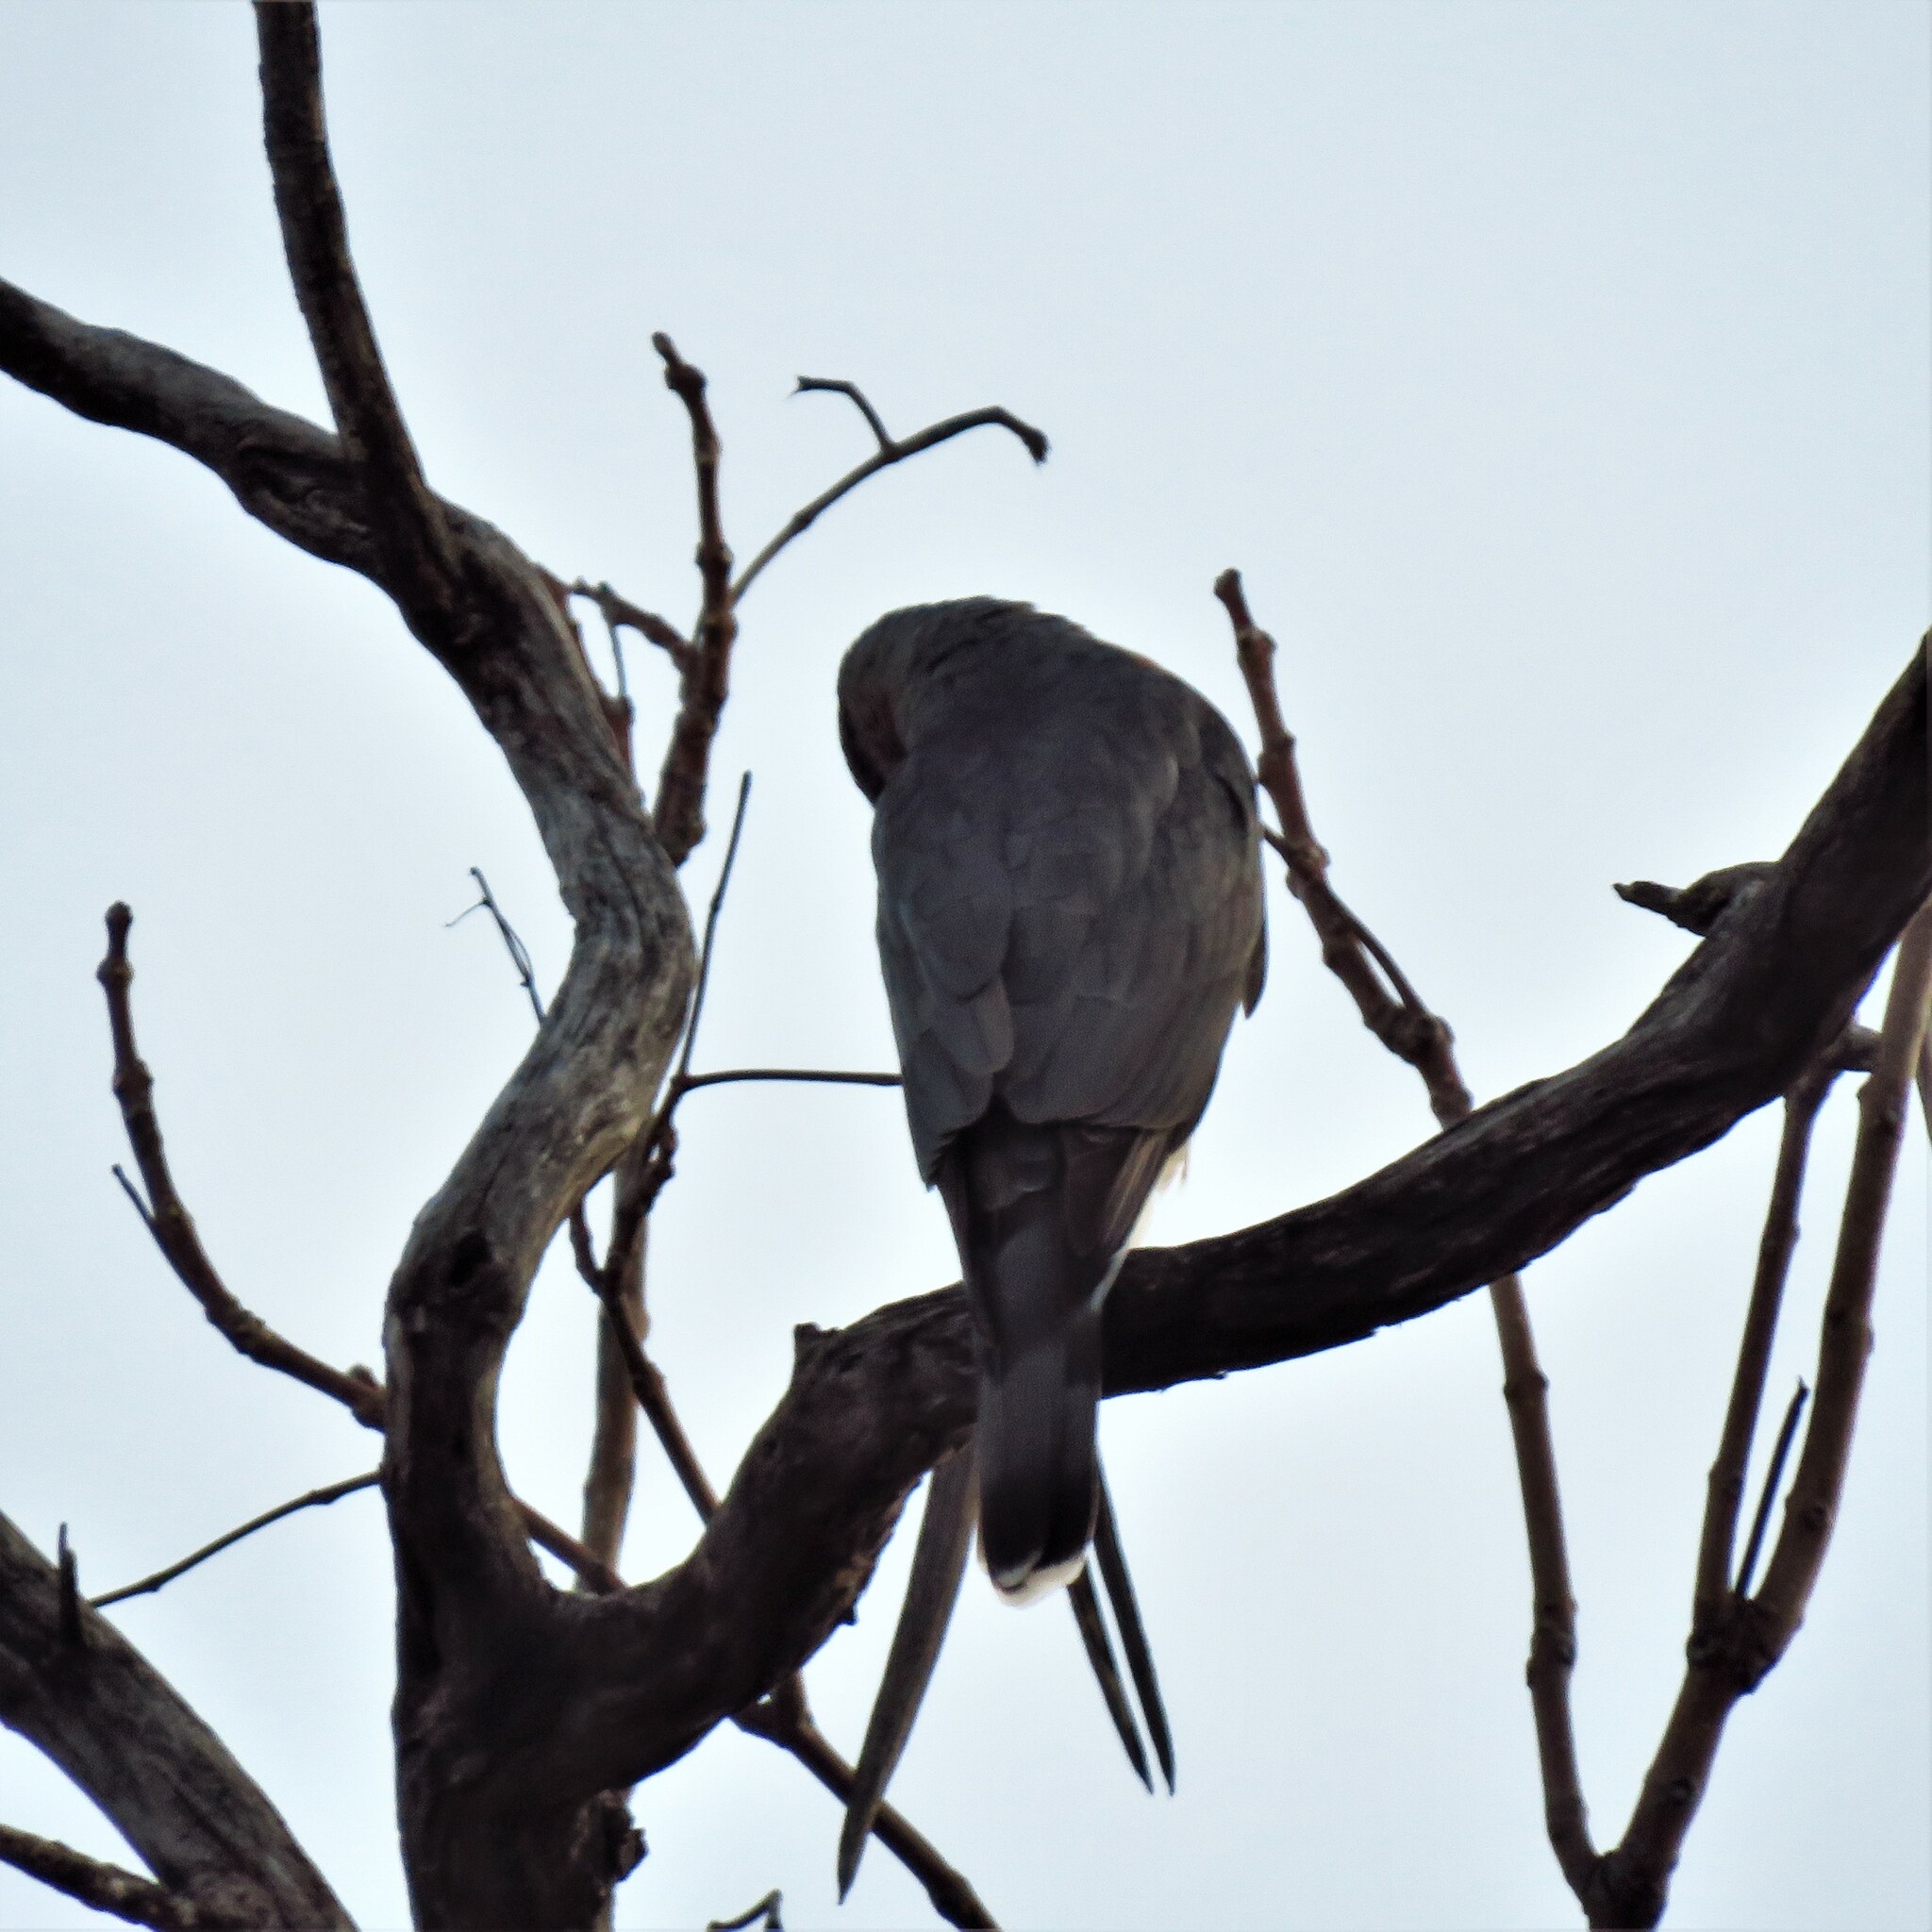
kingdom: Animalia
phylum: Chordata
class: Aves
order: Accipitriformes
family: Accipitridae
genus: Accipiter
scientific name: Accipiter cooperii
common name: Cooper's hawk
